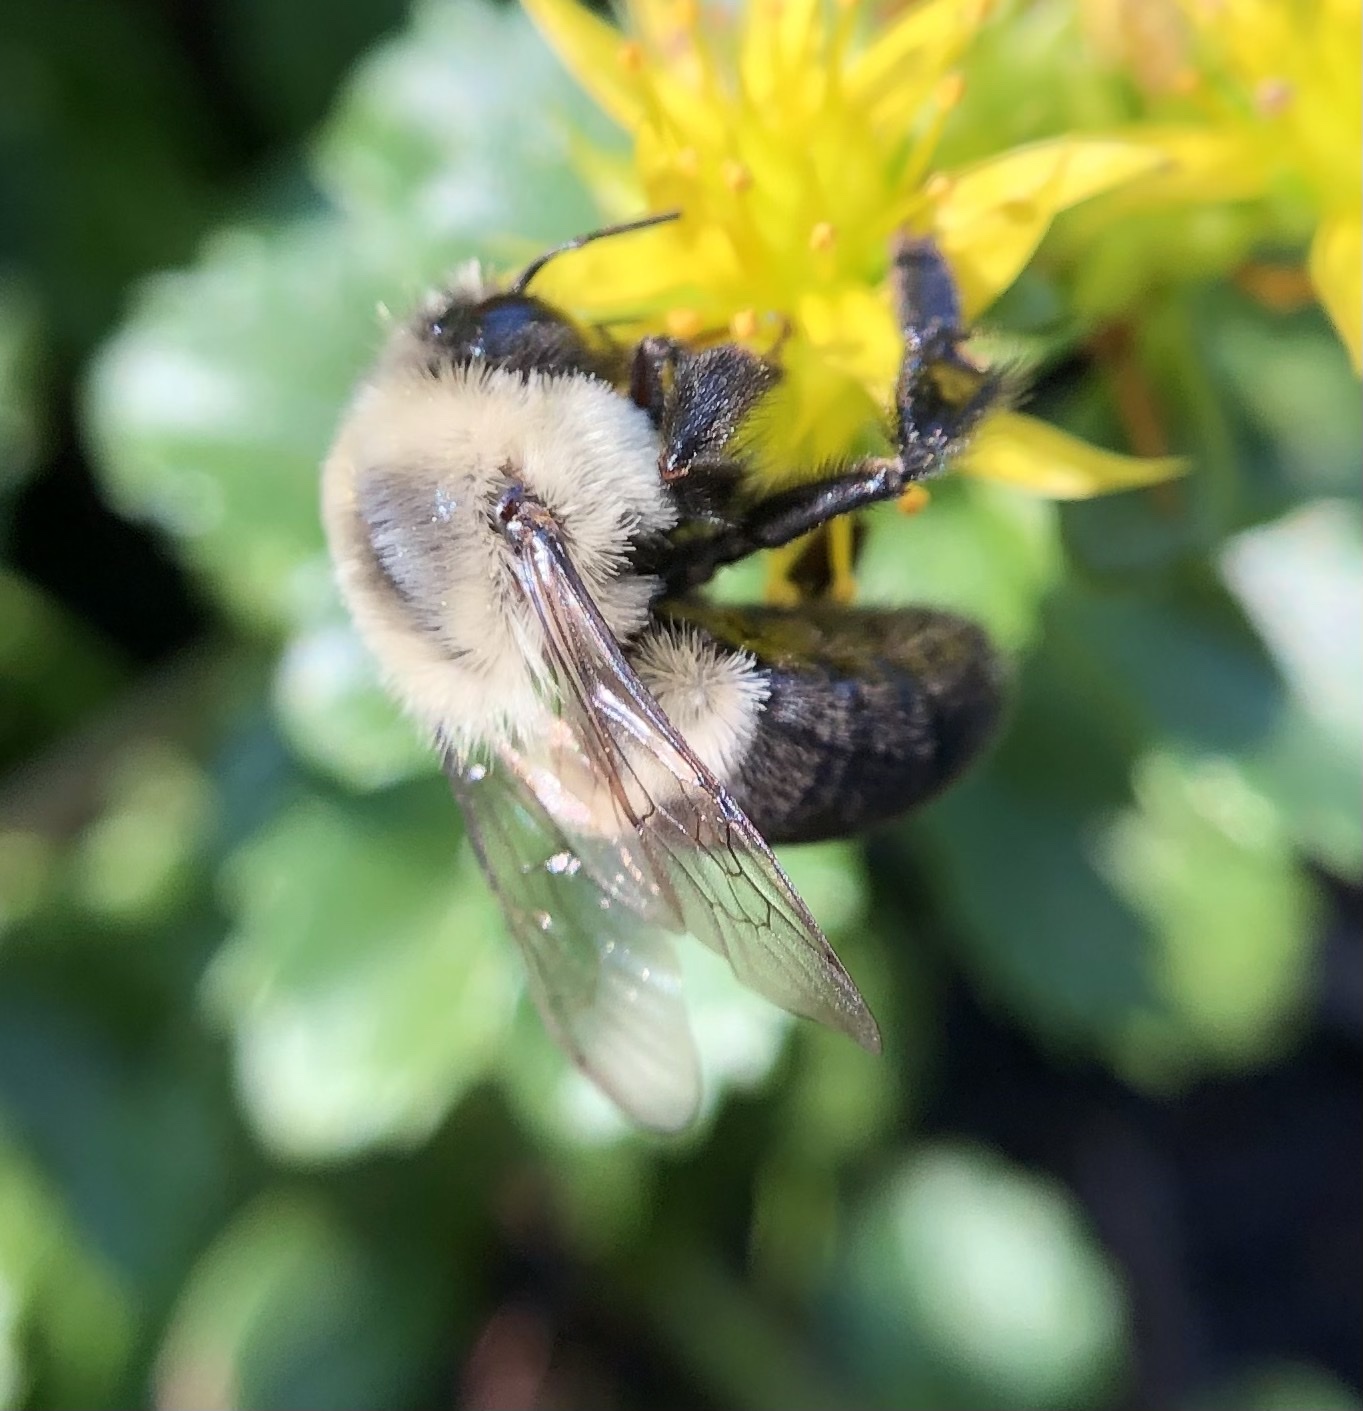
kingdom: Animalia
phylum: Arthropoda
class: Insecta
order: Hymenoptera
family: Apidae
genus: Bombus
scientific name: Bombus impatiens
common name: Common eastern bumble bee
